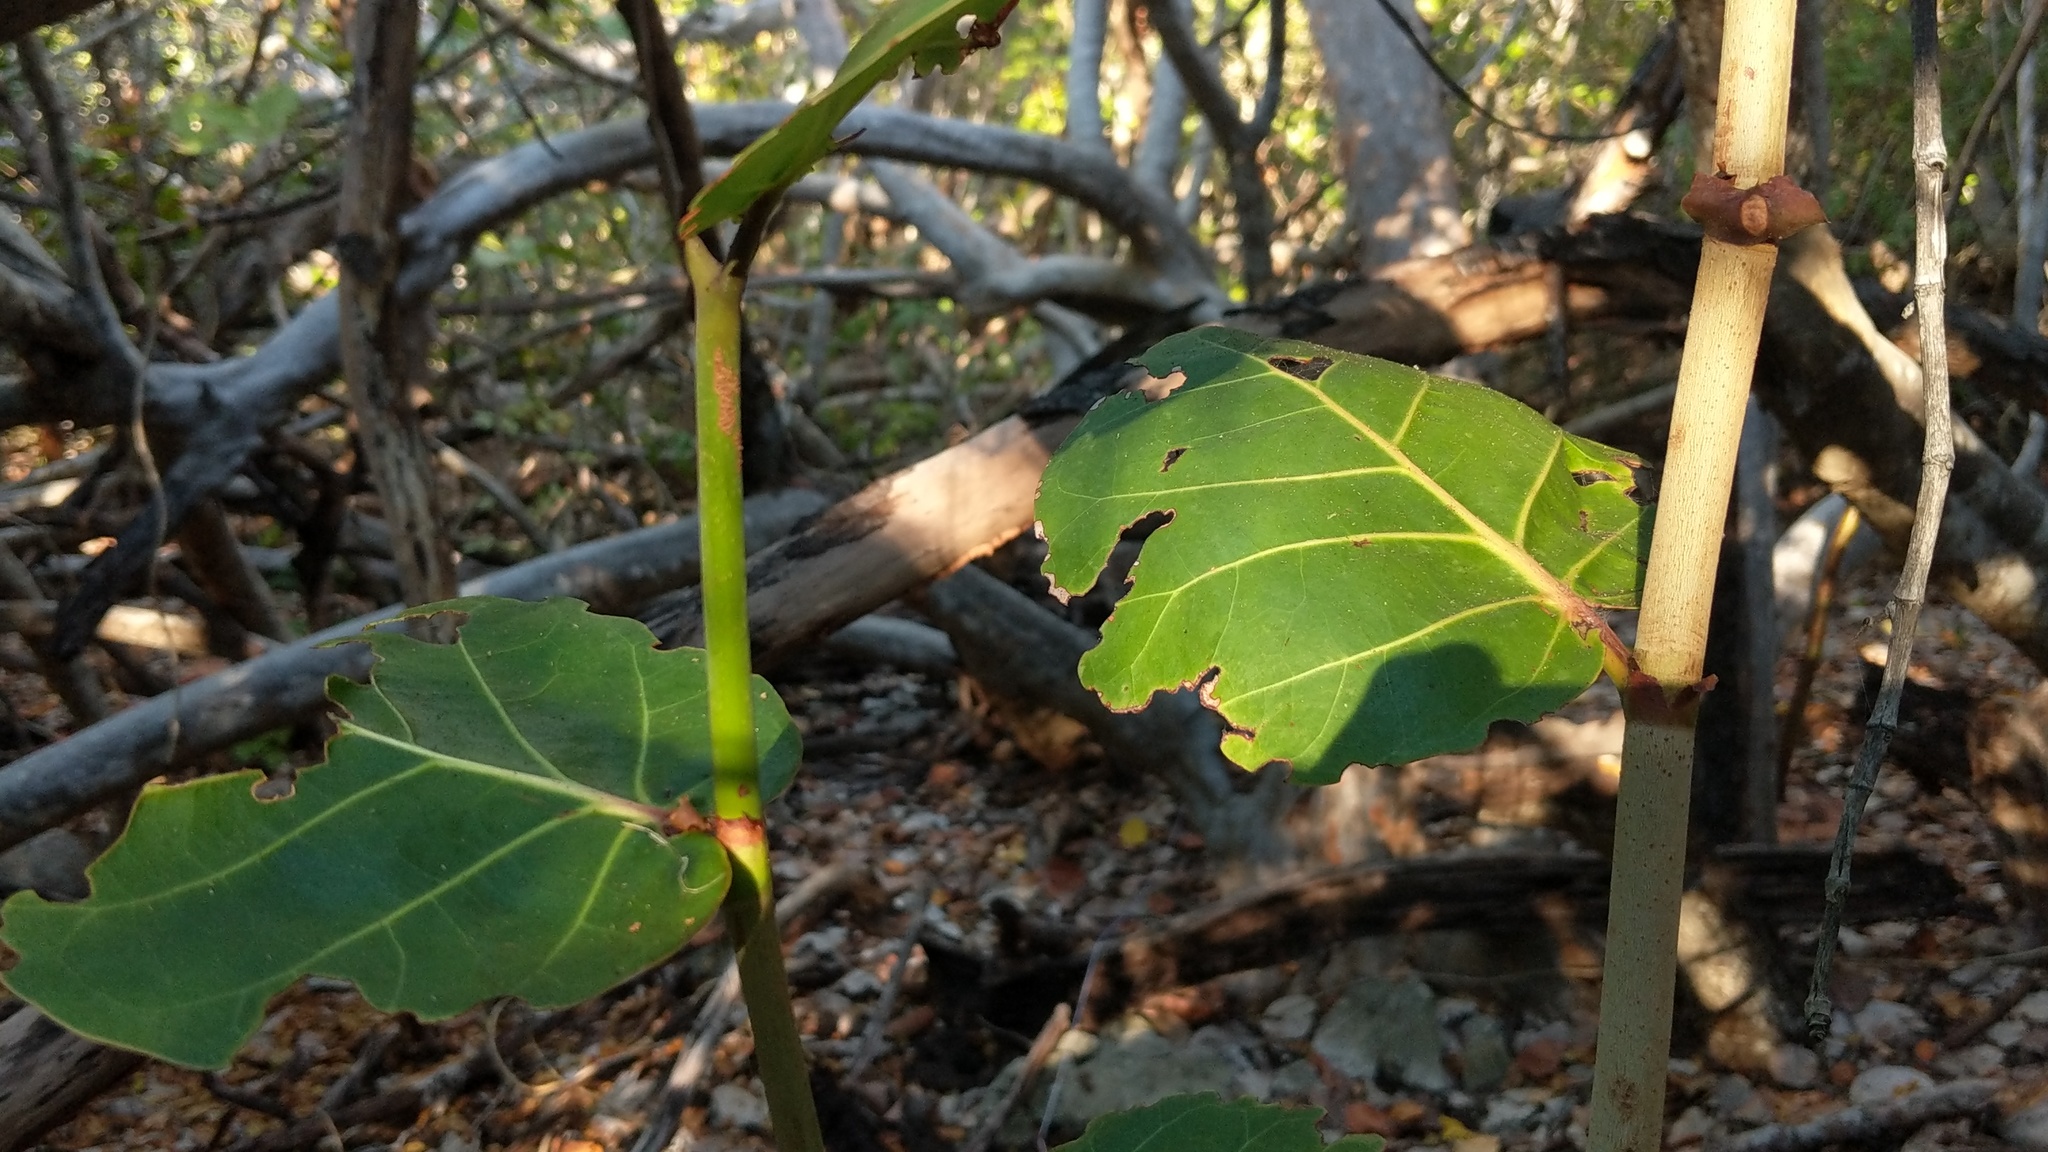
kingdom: Plantae
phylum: Tracheophyta
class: Magnoliopsida
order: Caryophyllales
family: Polygonaceae
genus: Coccoloba
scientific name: Coccoloba uvifera
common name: Seagrape
